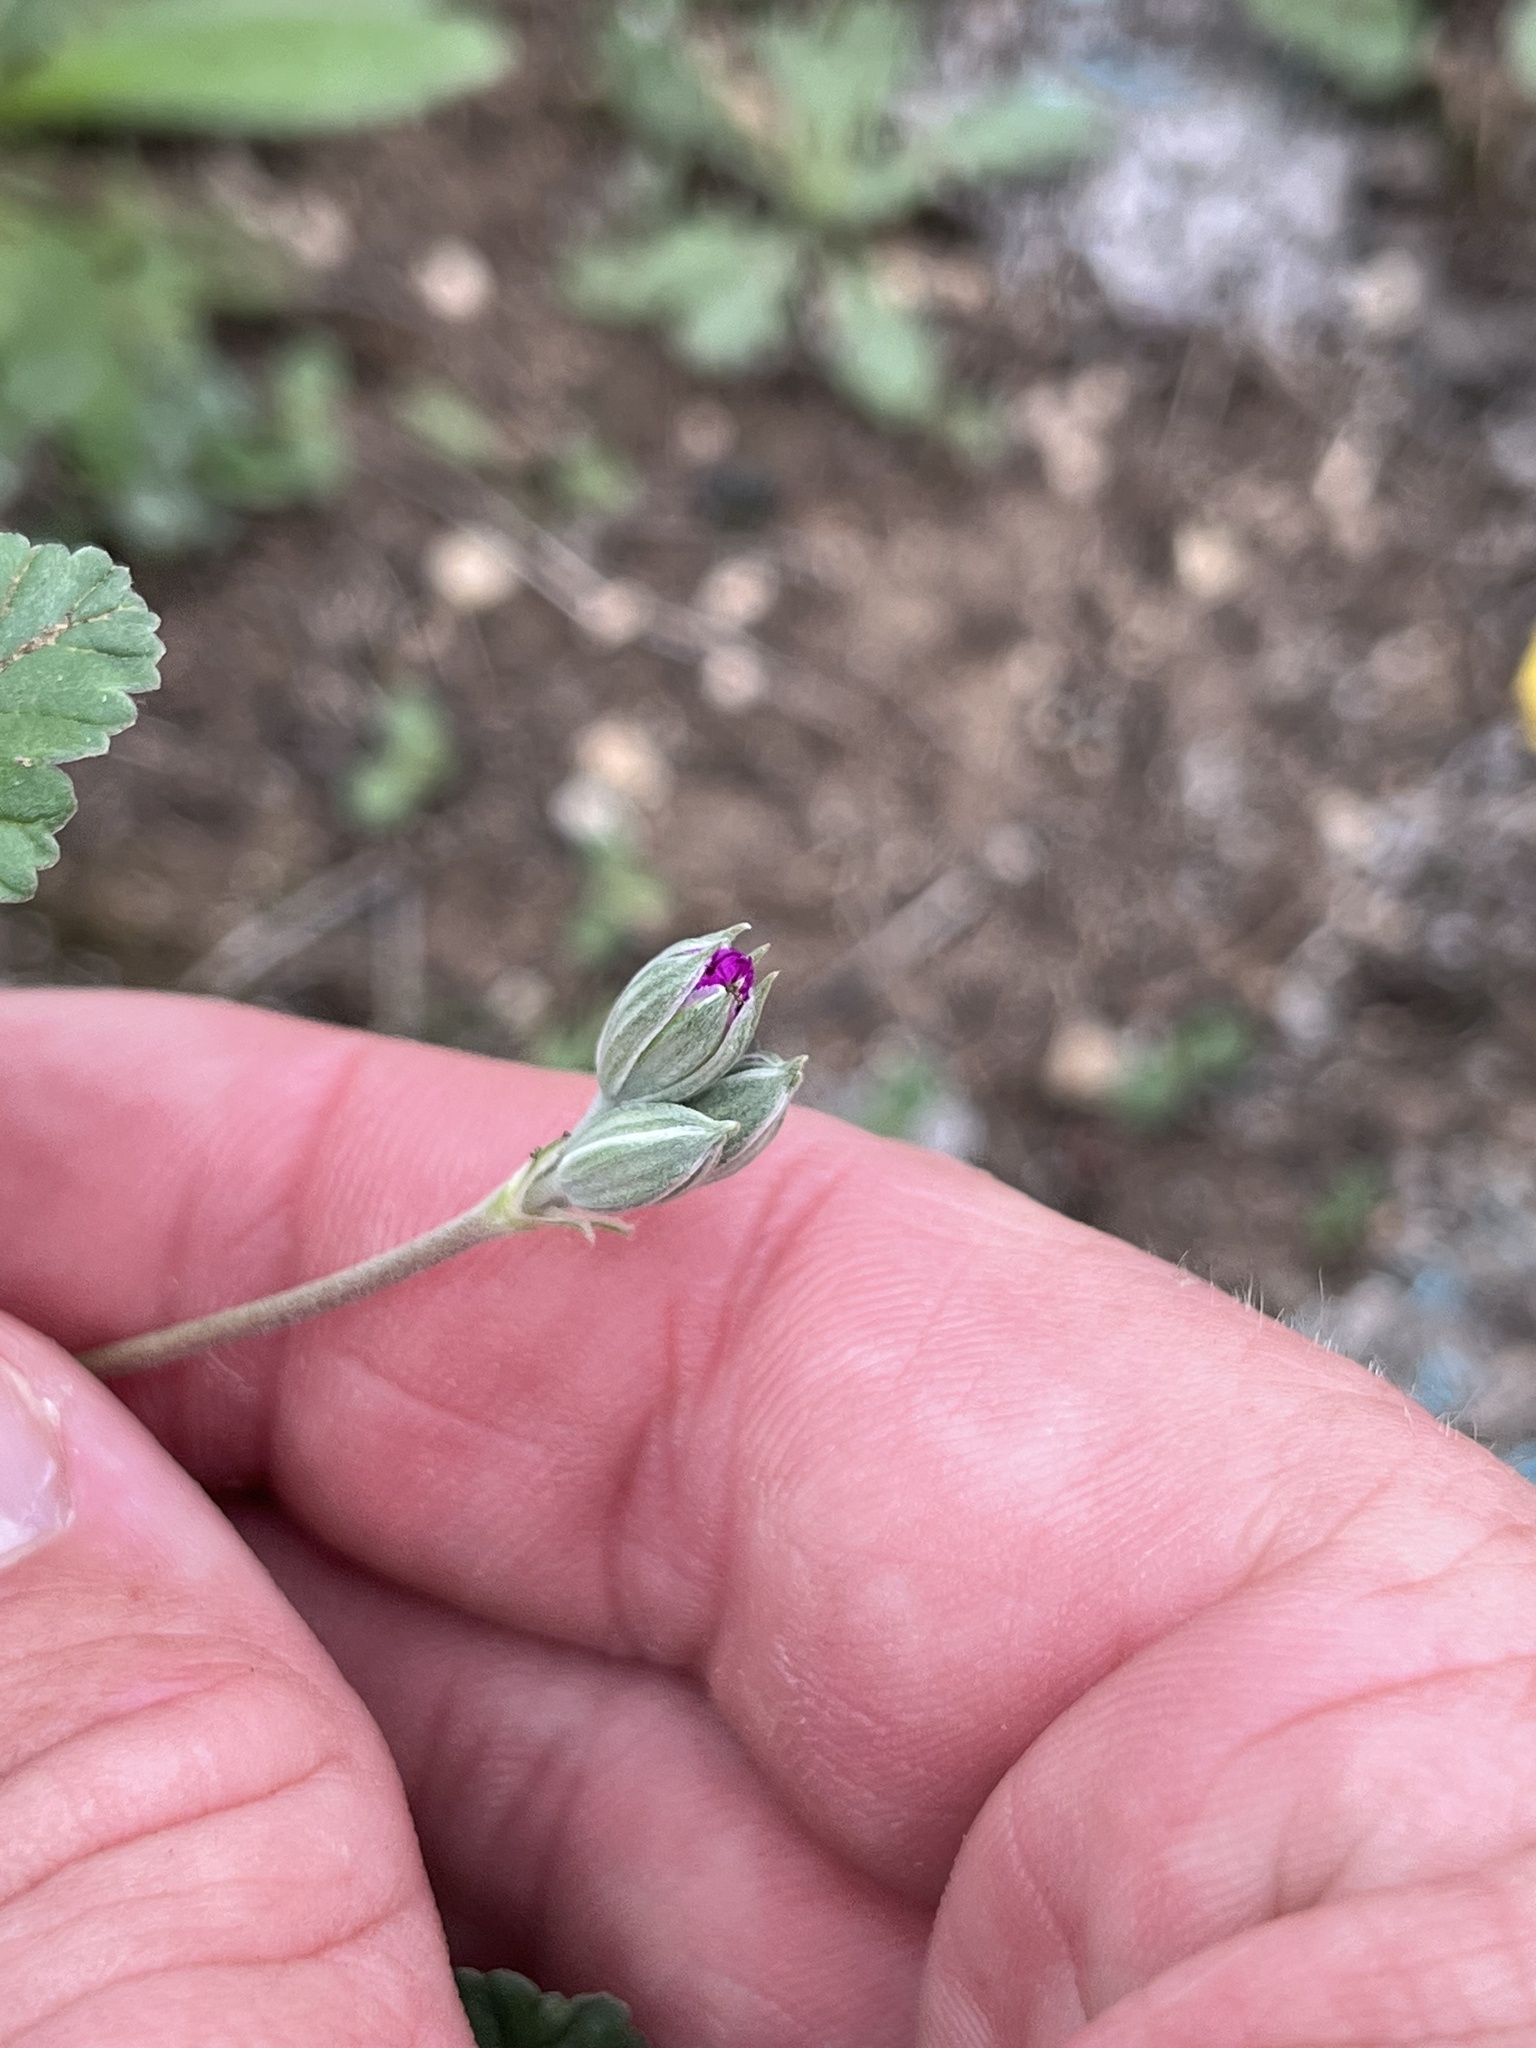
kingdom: Plantae
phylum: Tracheophyta
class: Magnoliopsida
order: Geraniales
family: Geraniaceae
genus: Erodium
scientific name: Erodium texanum
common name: Texas stork's-bill
